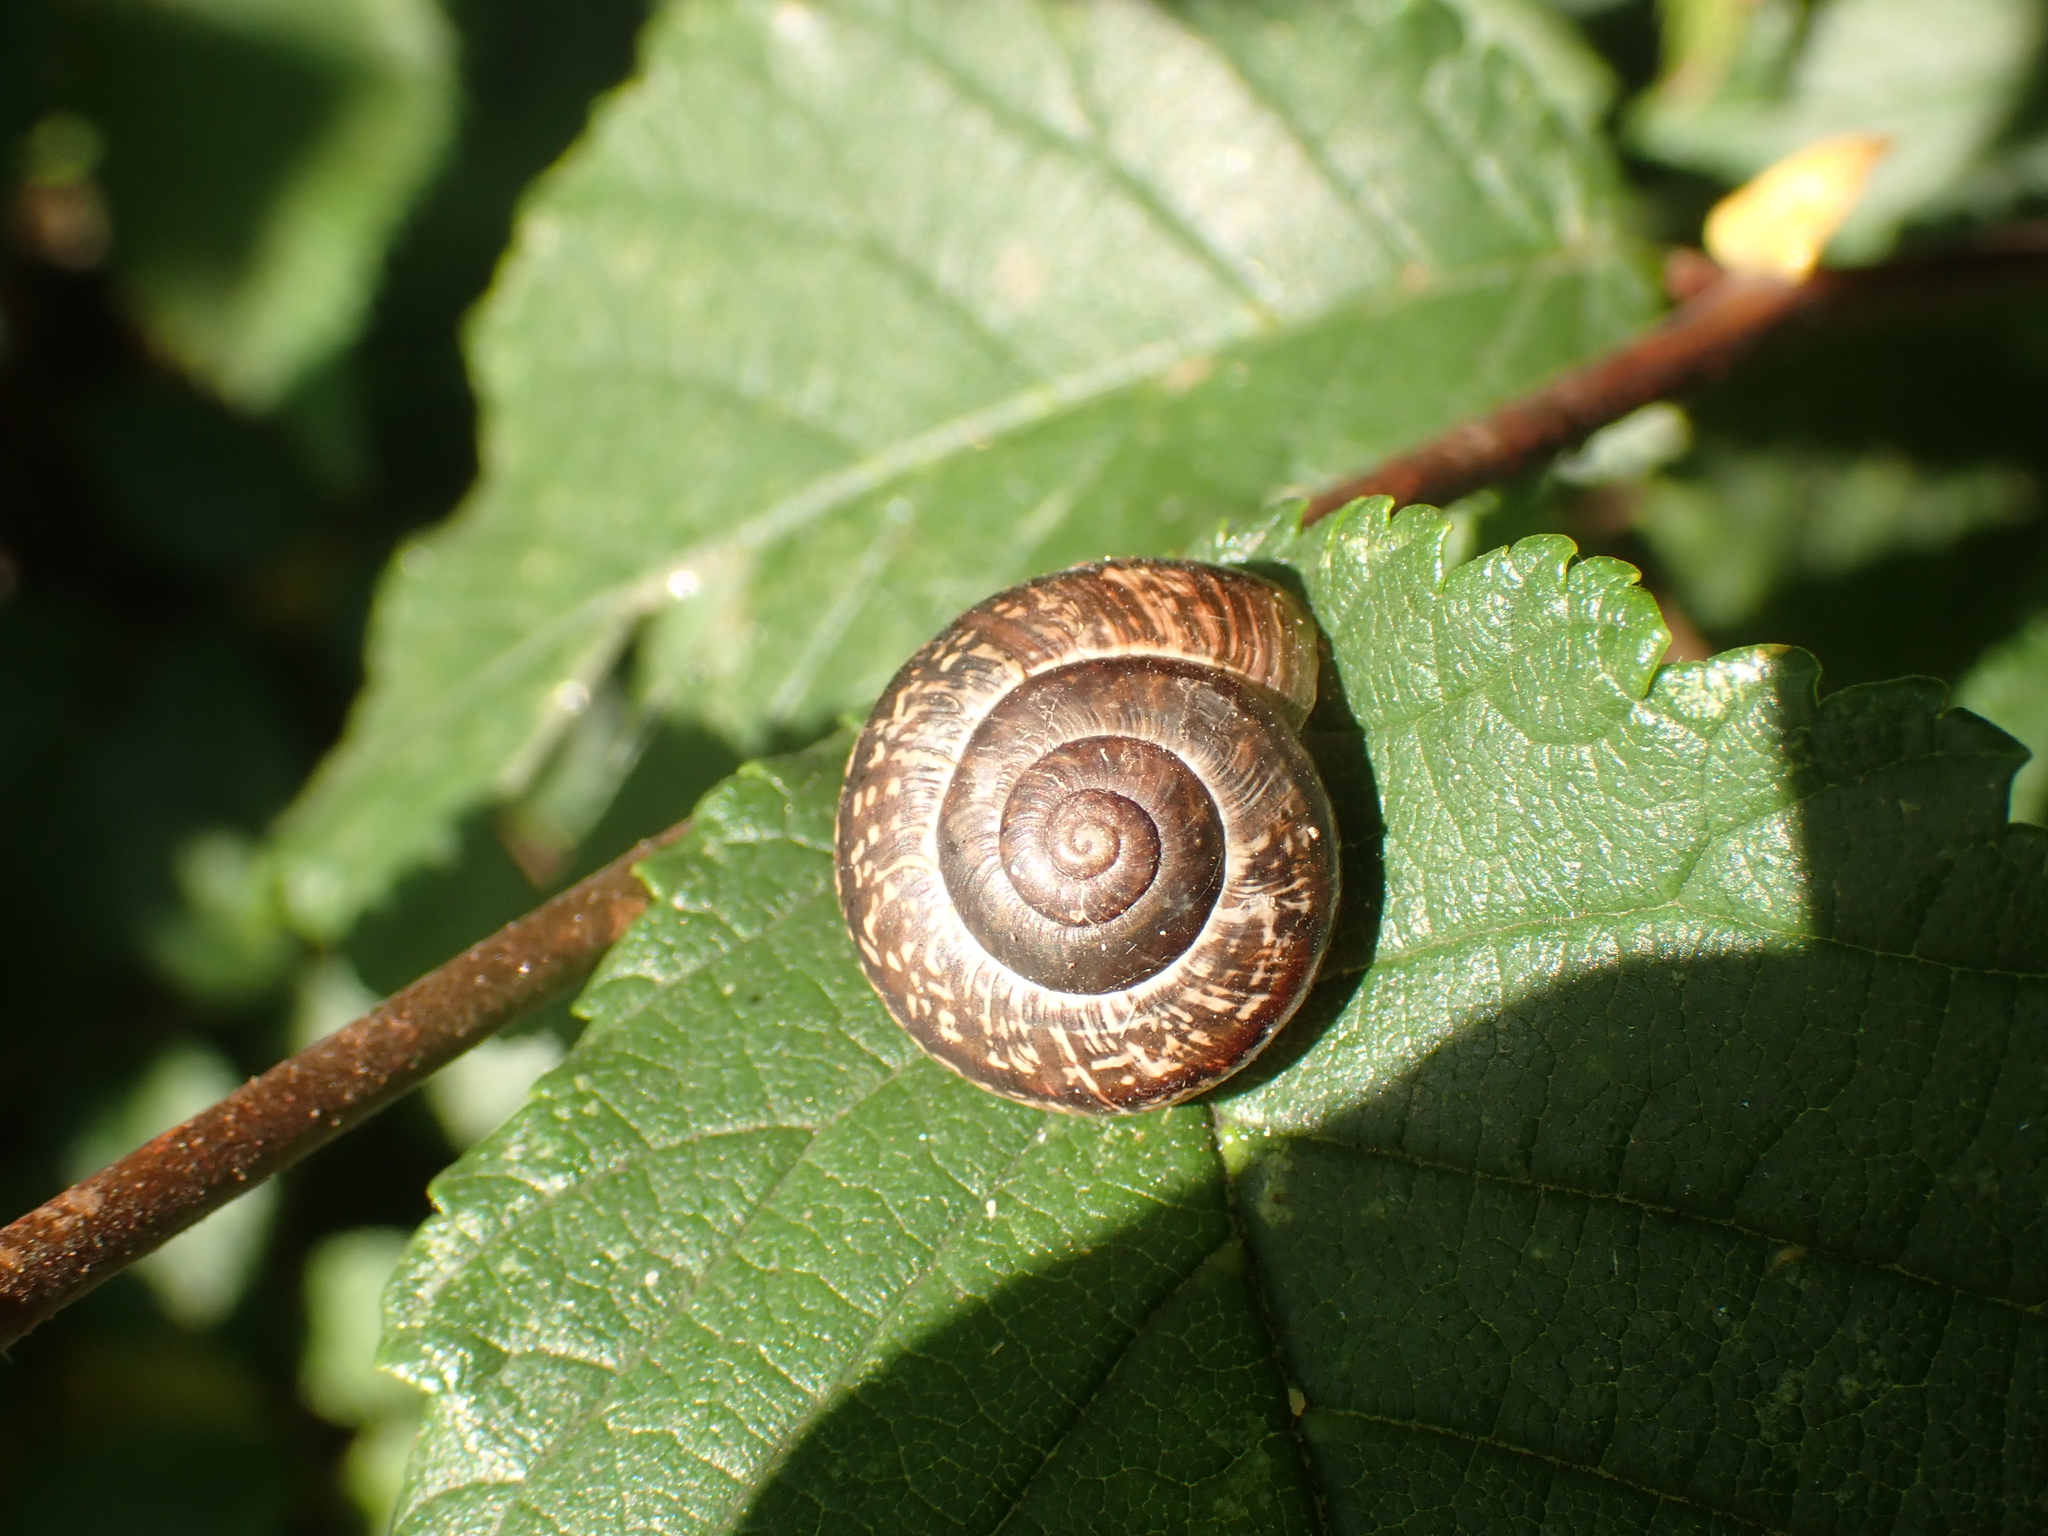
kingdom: Animalia
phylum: Mollusca
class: Gastropoda
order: Stylommatophora
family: Helicidae
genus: Arianta
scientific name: Arianta arbustorum
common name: Copse snail
